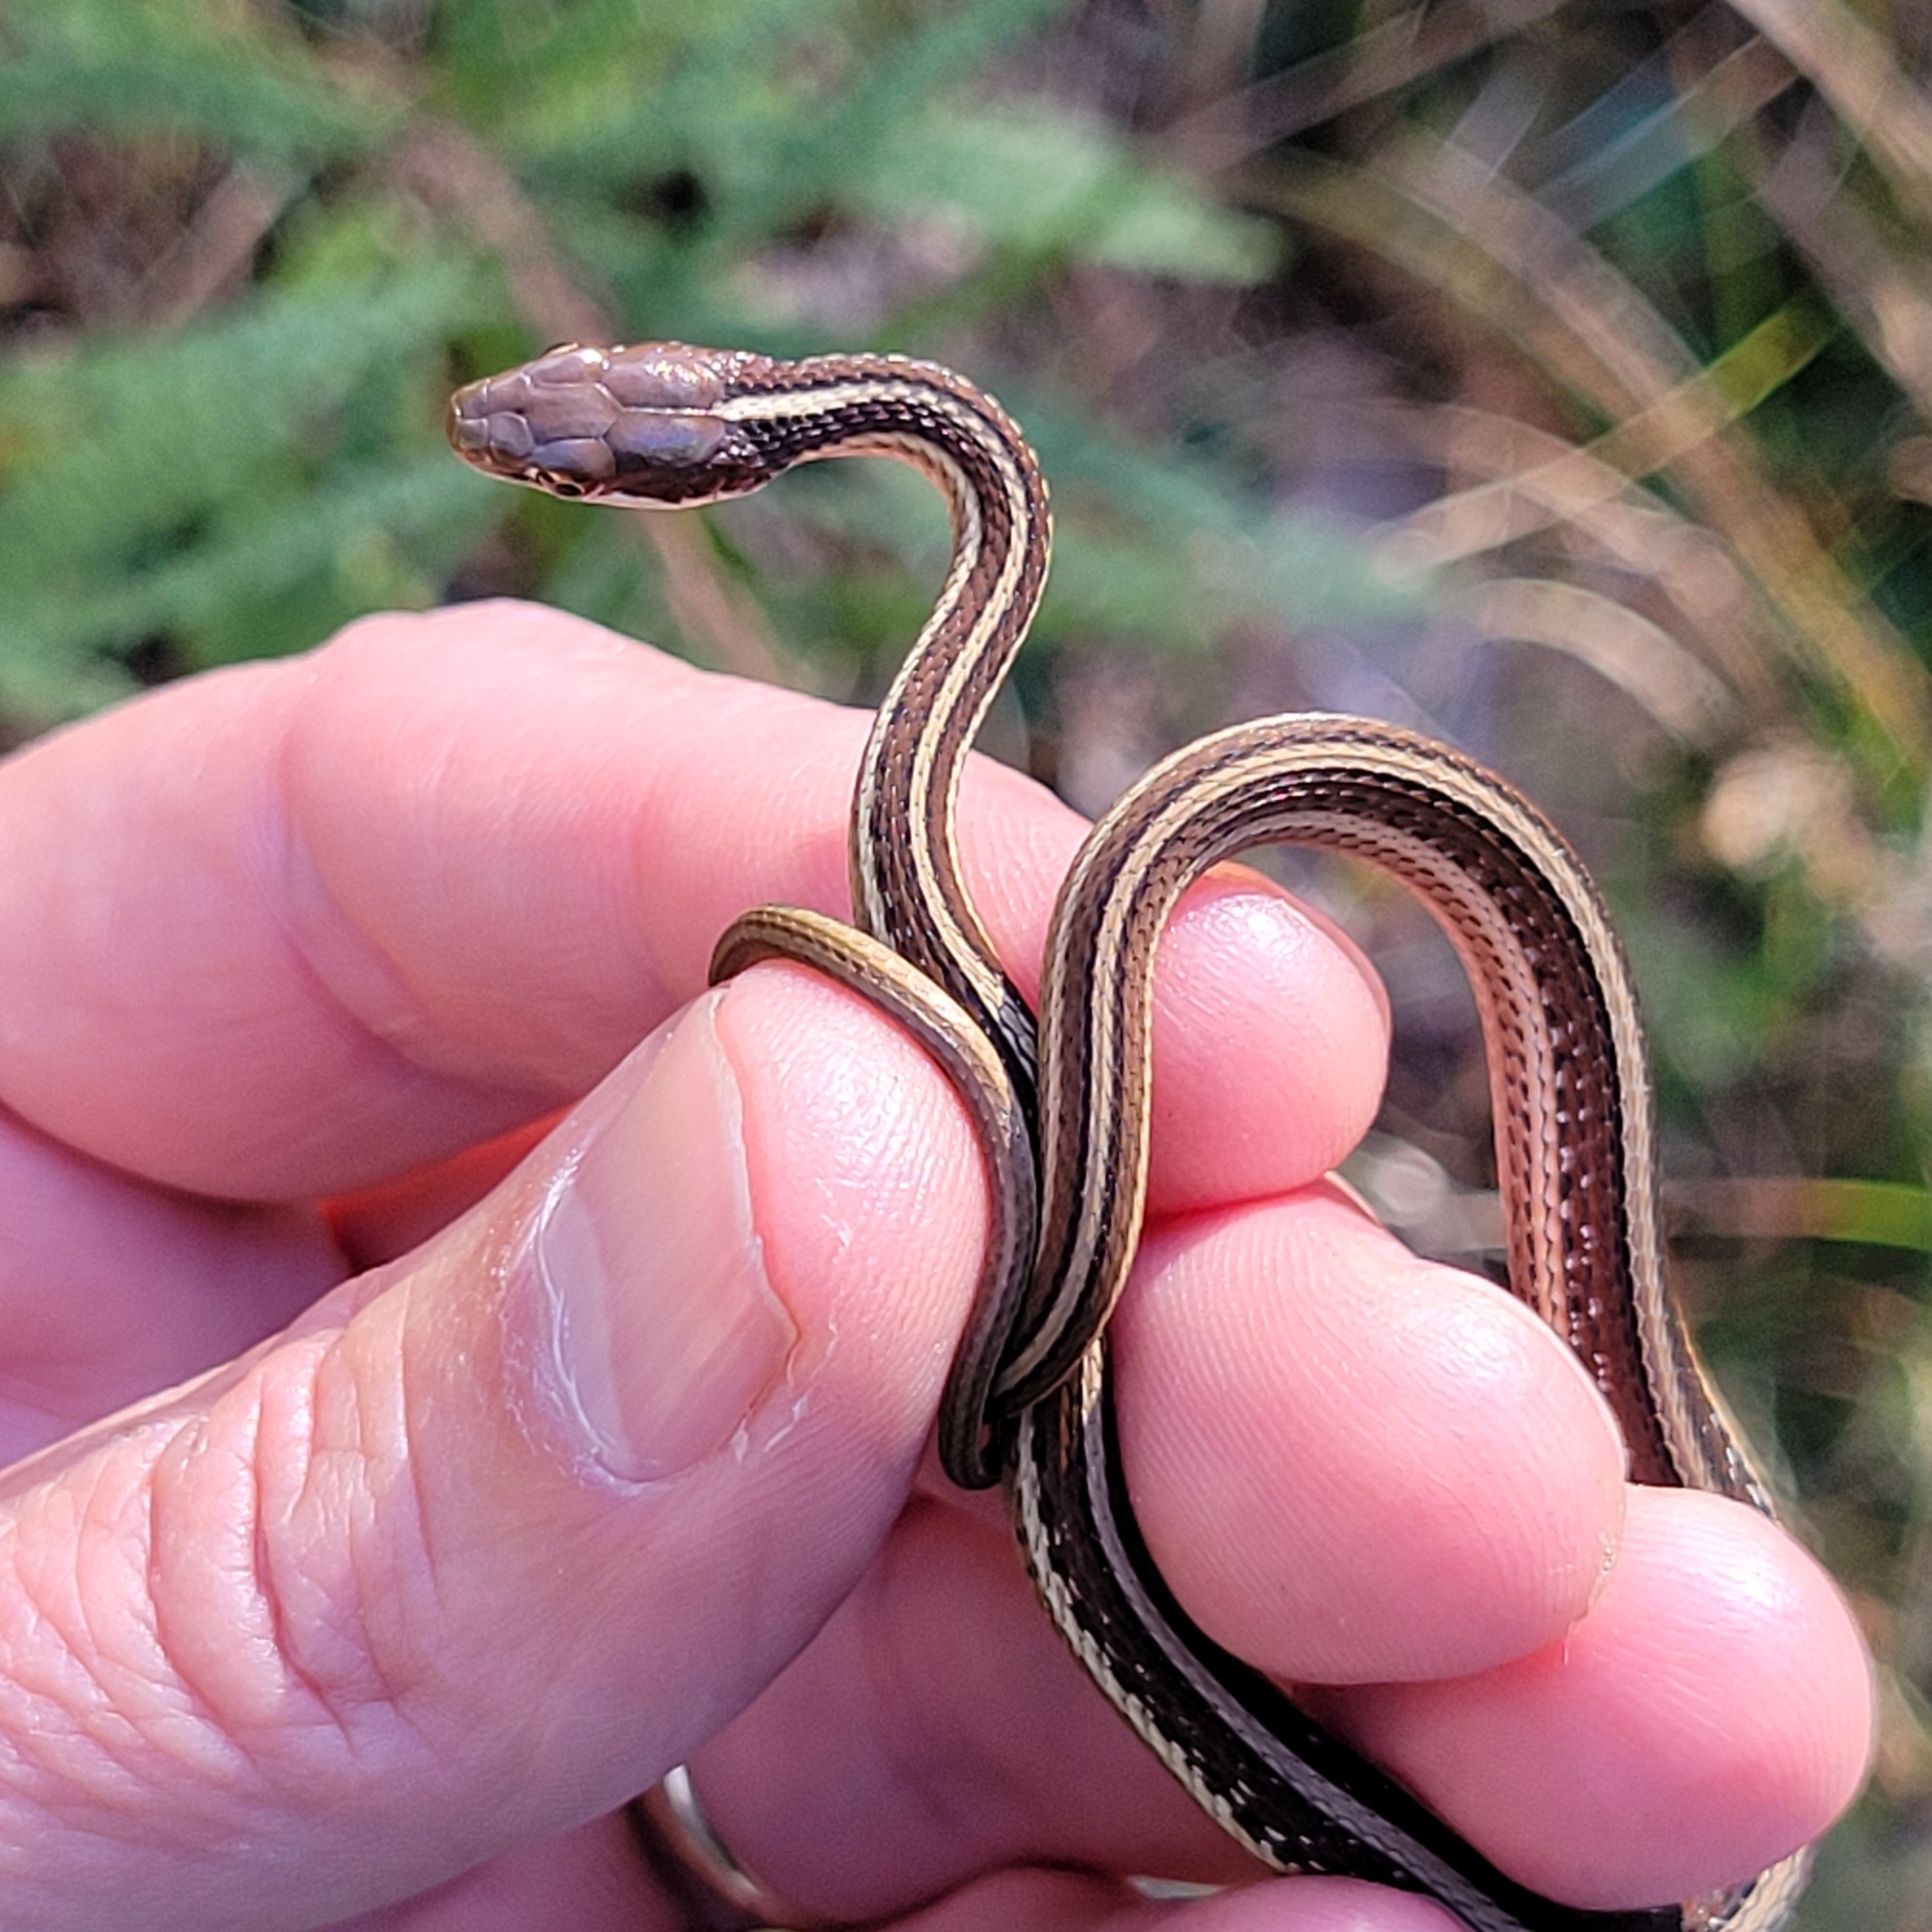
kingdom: Animalia
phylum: Chordata
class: Squamata
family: Colubridae
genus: Thamnophis
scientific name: Thamnophis saurita
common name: Eastern ribbonsnake
